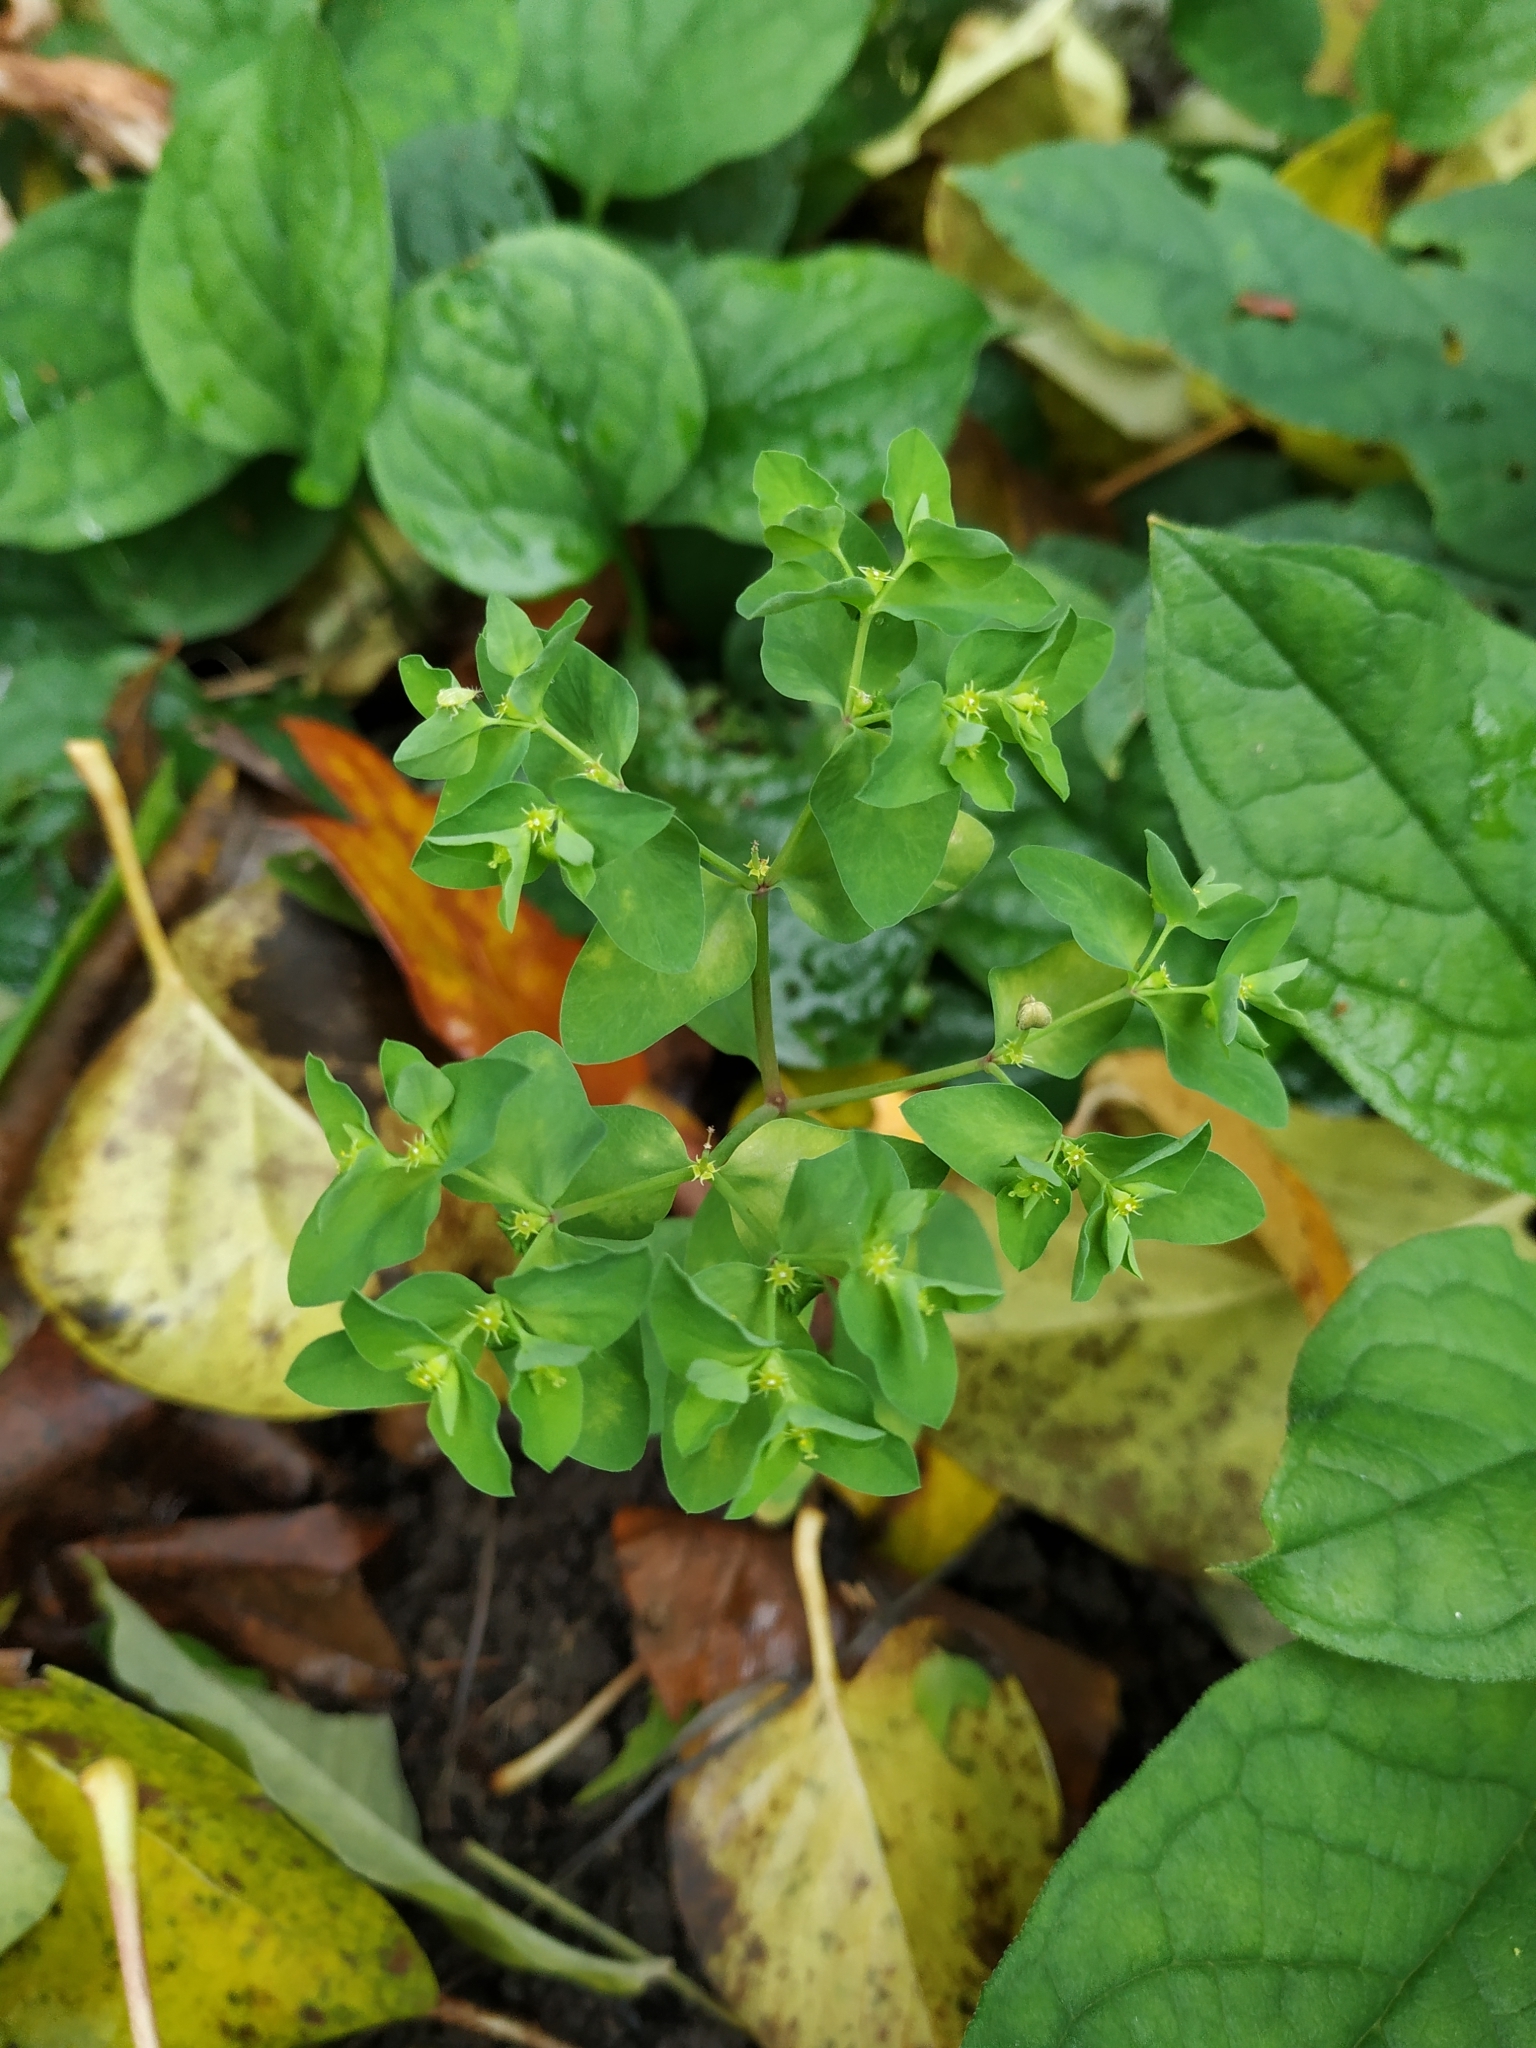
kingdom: Plantae
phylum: Tracheophyta
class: Magnoliopsida
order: Malpighiales
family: Euphorbiaceae
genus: Euphorbia
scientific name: Euphorbia peplus
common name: Petty spurge
